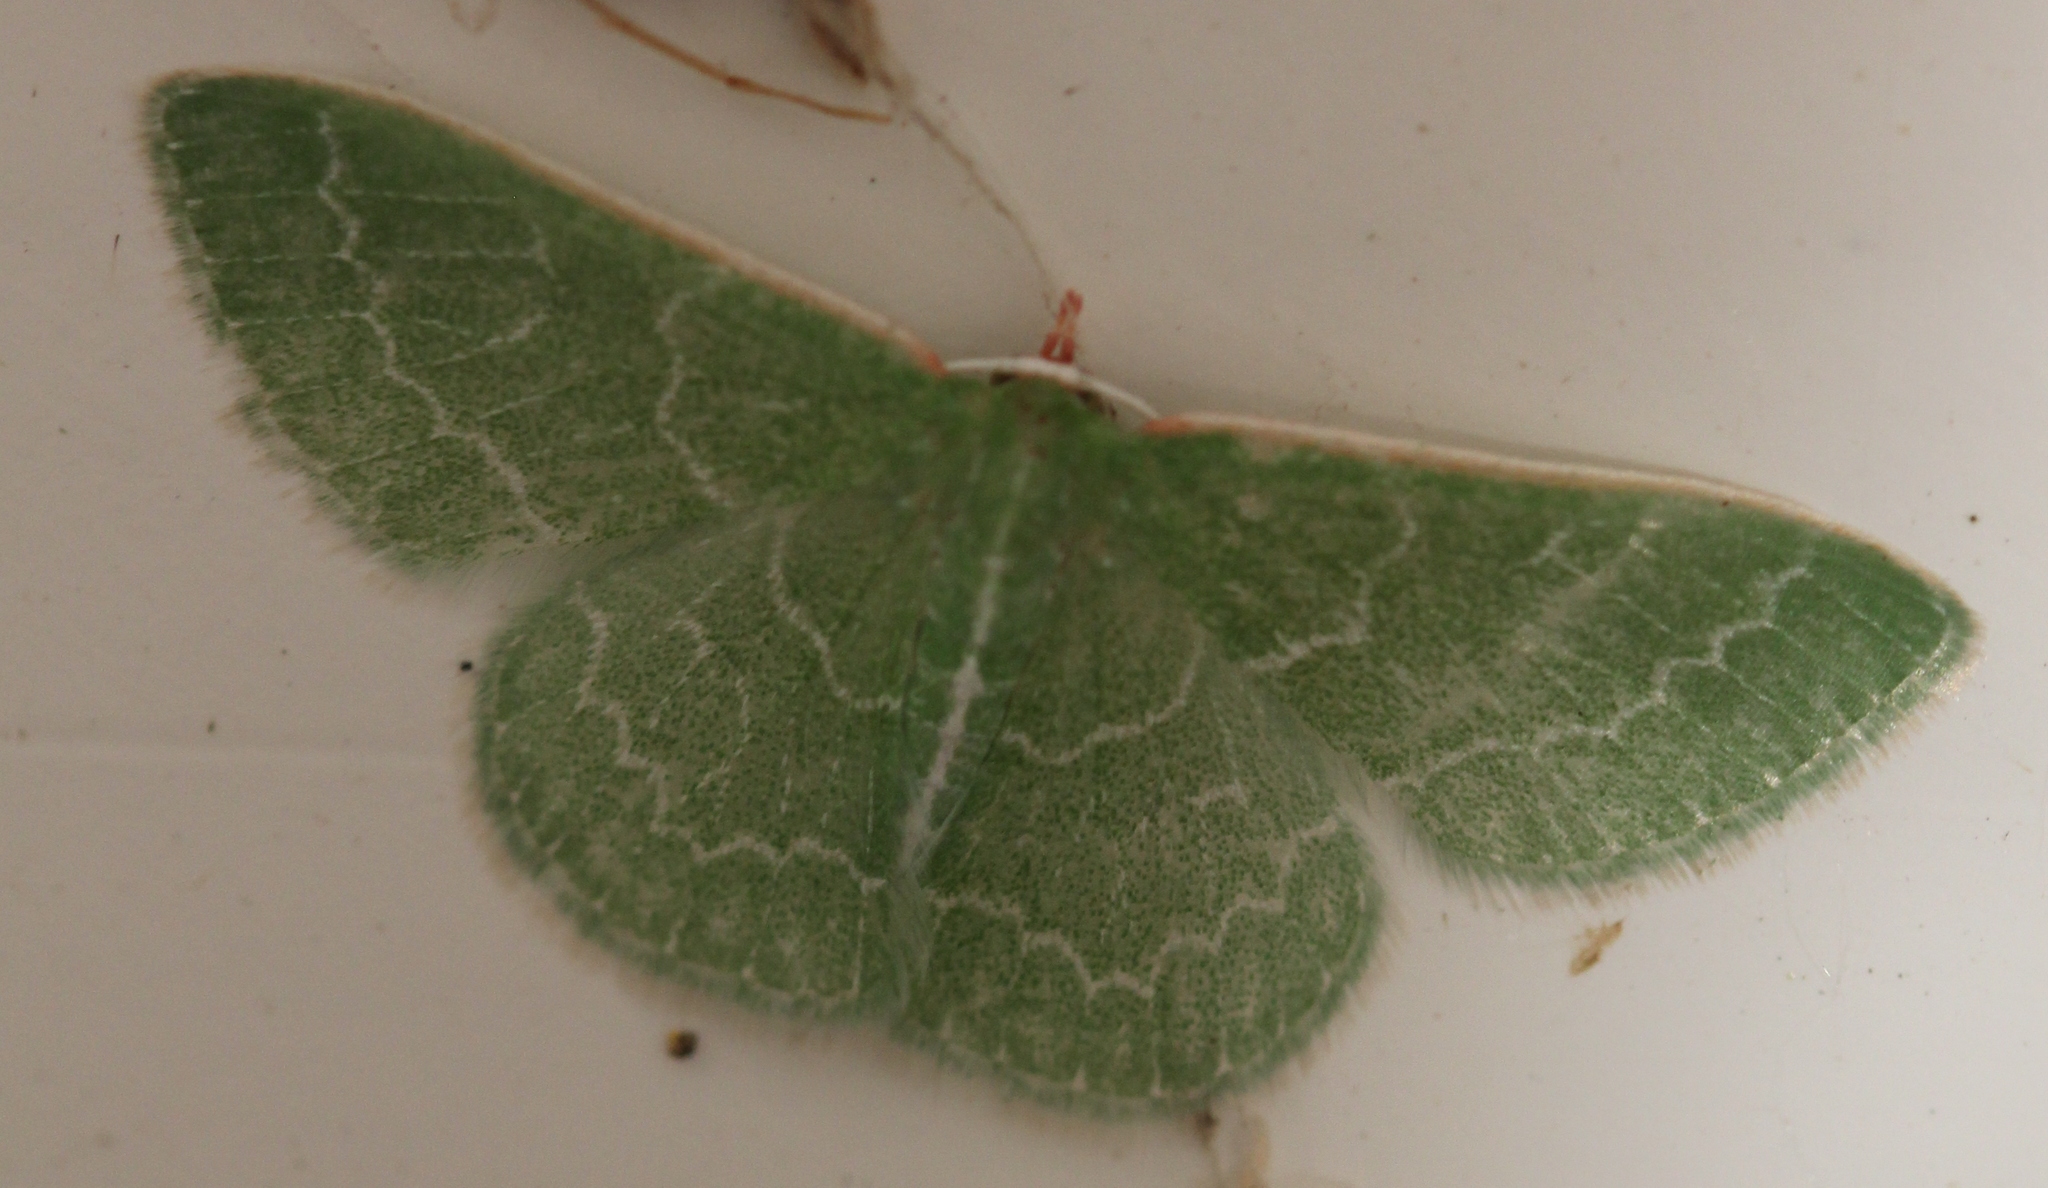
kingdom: Animalia
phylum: Arthropoda
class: Insecta
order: Lepidoptera
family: Geometridae
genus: Synchlora
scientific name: Synchlora frondaria
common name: Southern emerald
